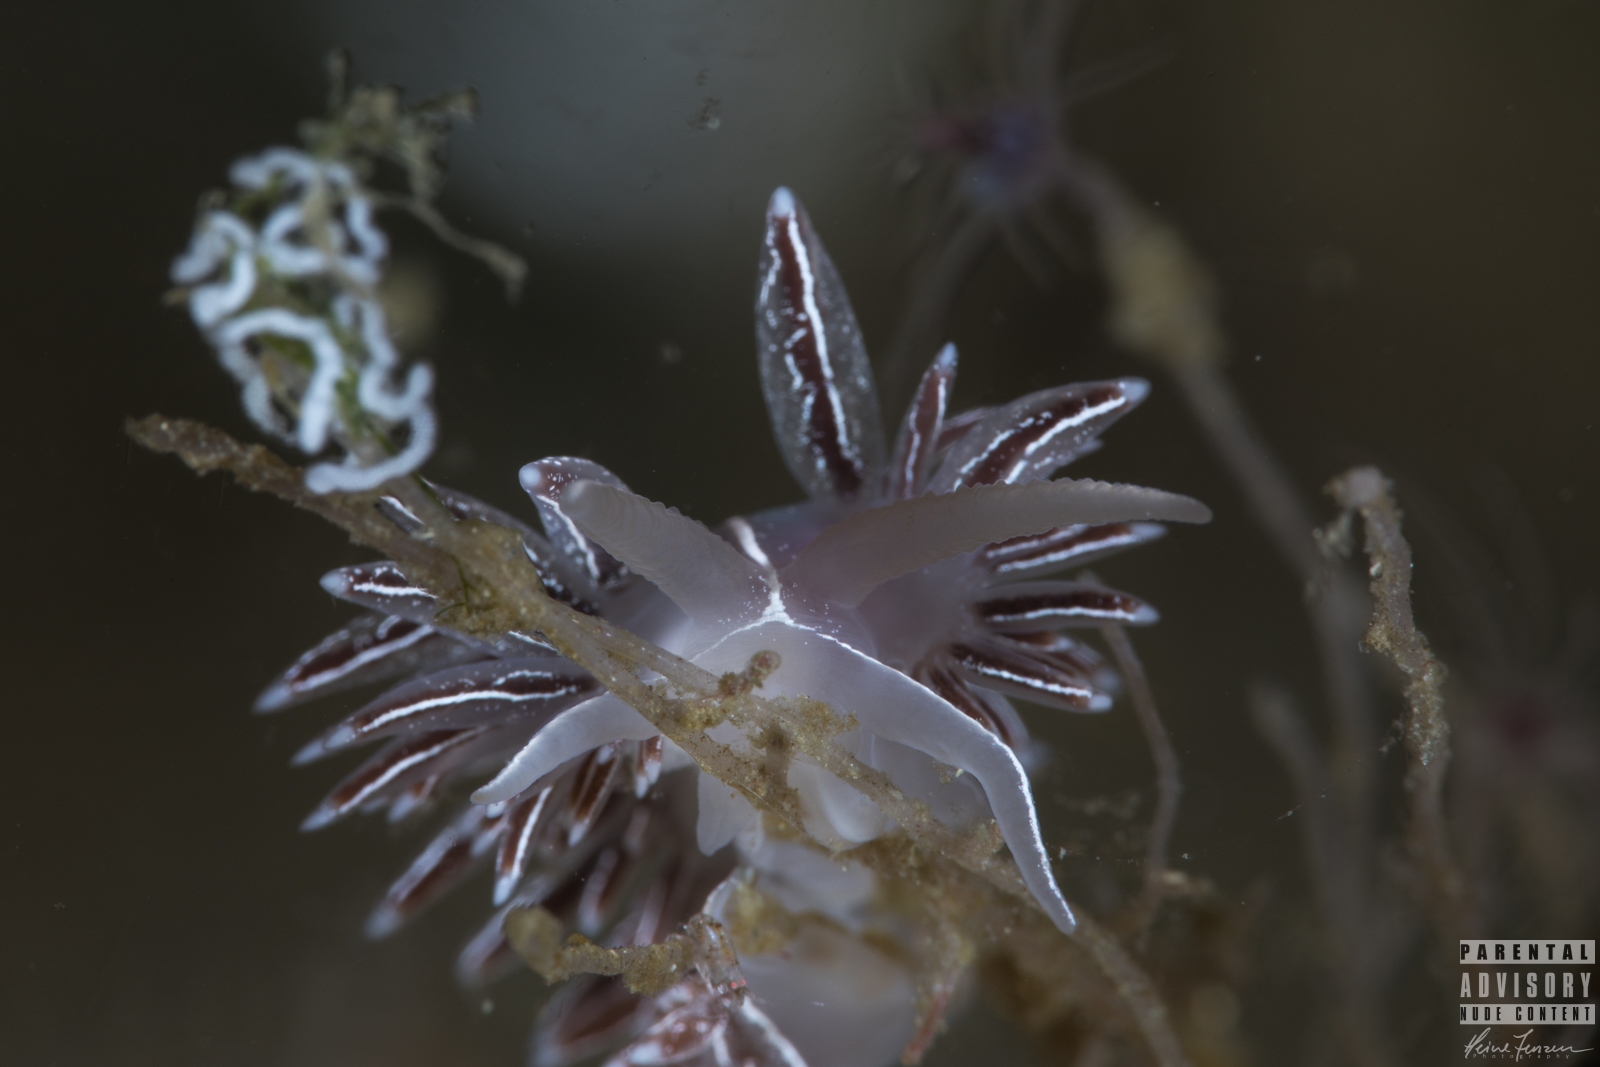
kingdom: Animalia
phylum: Mollusca
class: Gastropoda
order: Nudibranchia
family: Coryphellidae
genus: Coryphella
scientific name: Coryphella chriskaugei
